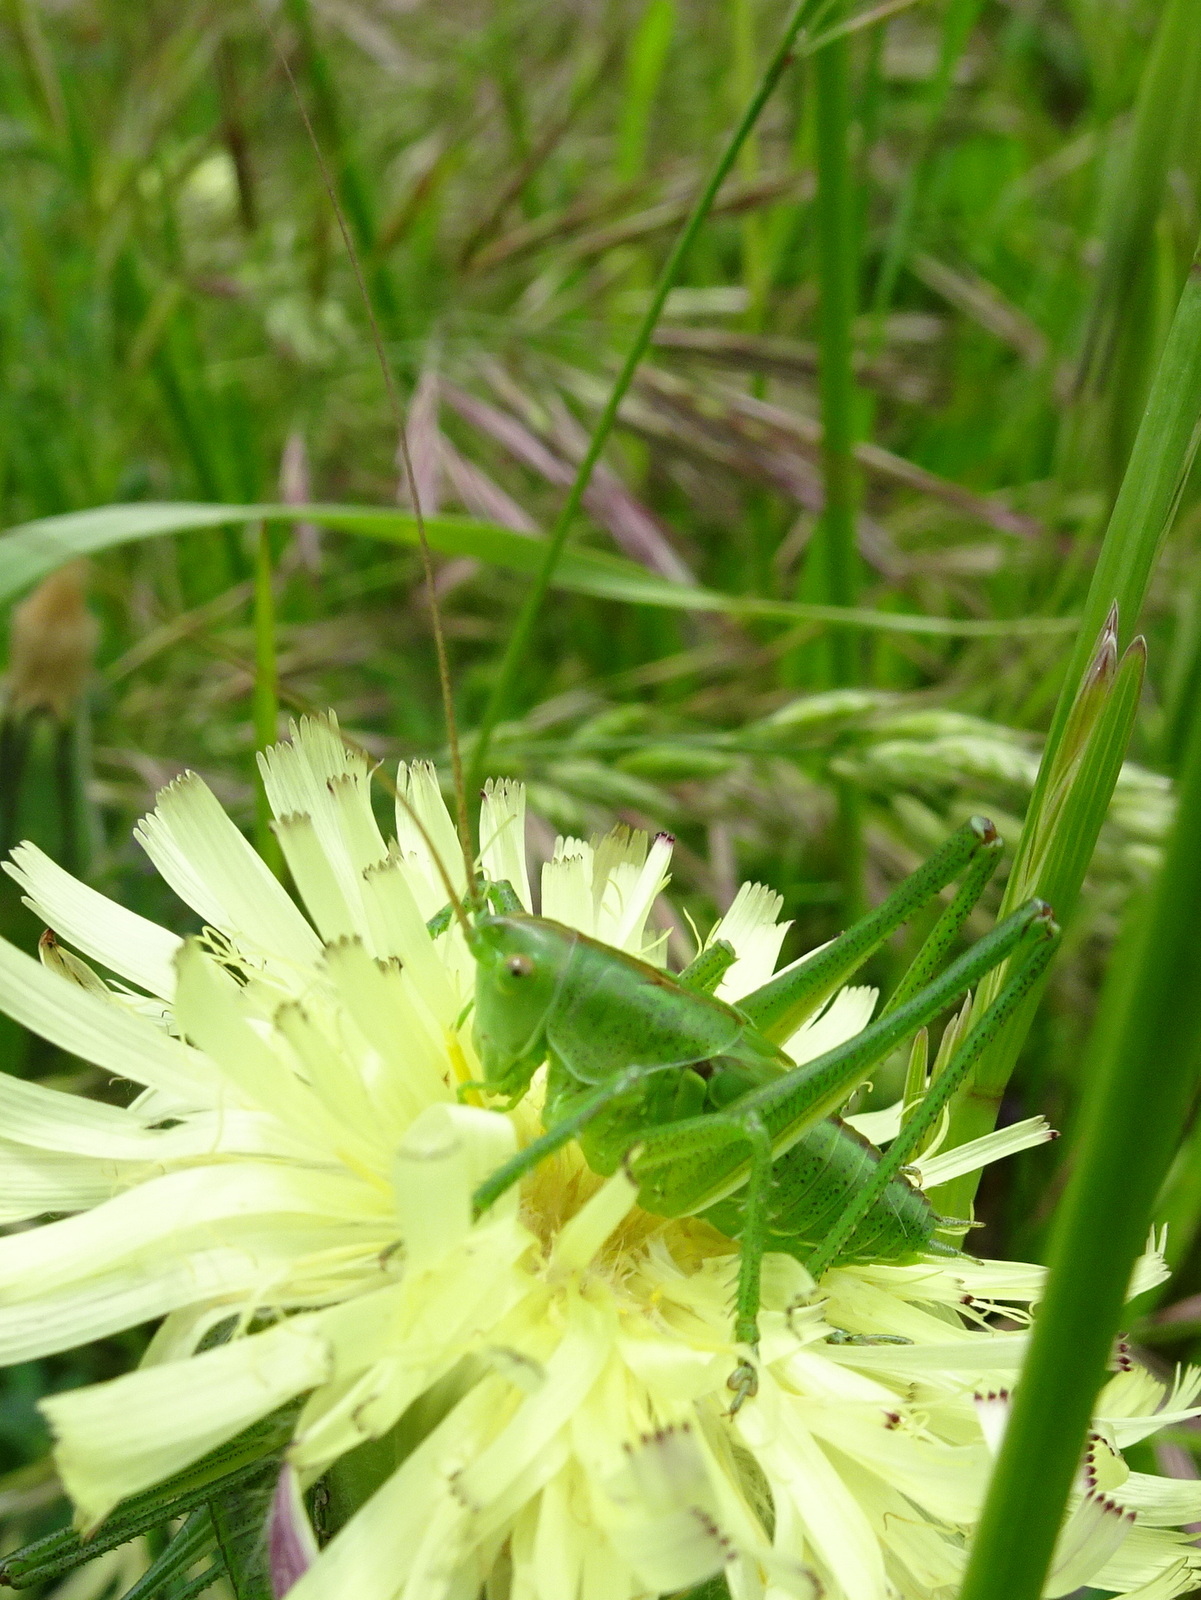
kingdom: Animalia
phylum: Arthropoda
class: Insecta
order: Orthoptera
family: Tettigoniidae
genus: Tettigonia
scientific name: Tettigonia viridissima
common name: Great green bush-cricket
